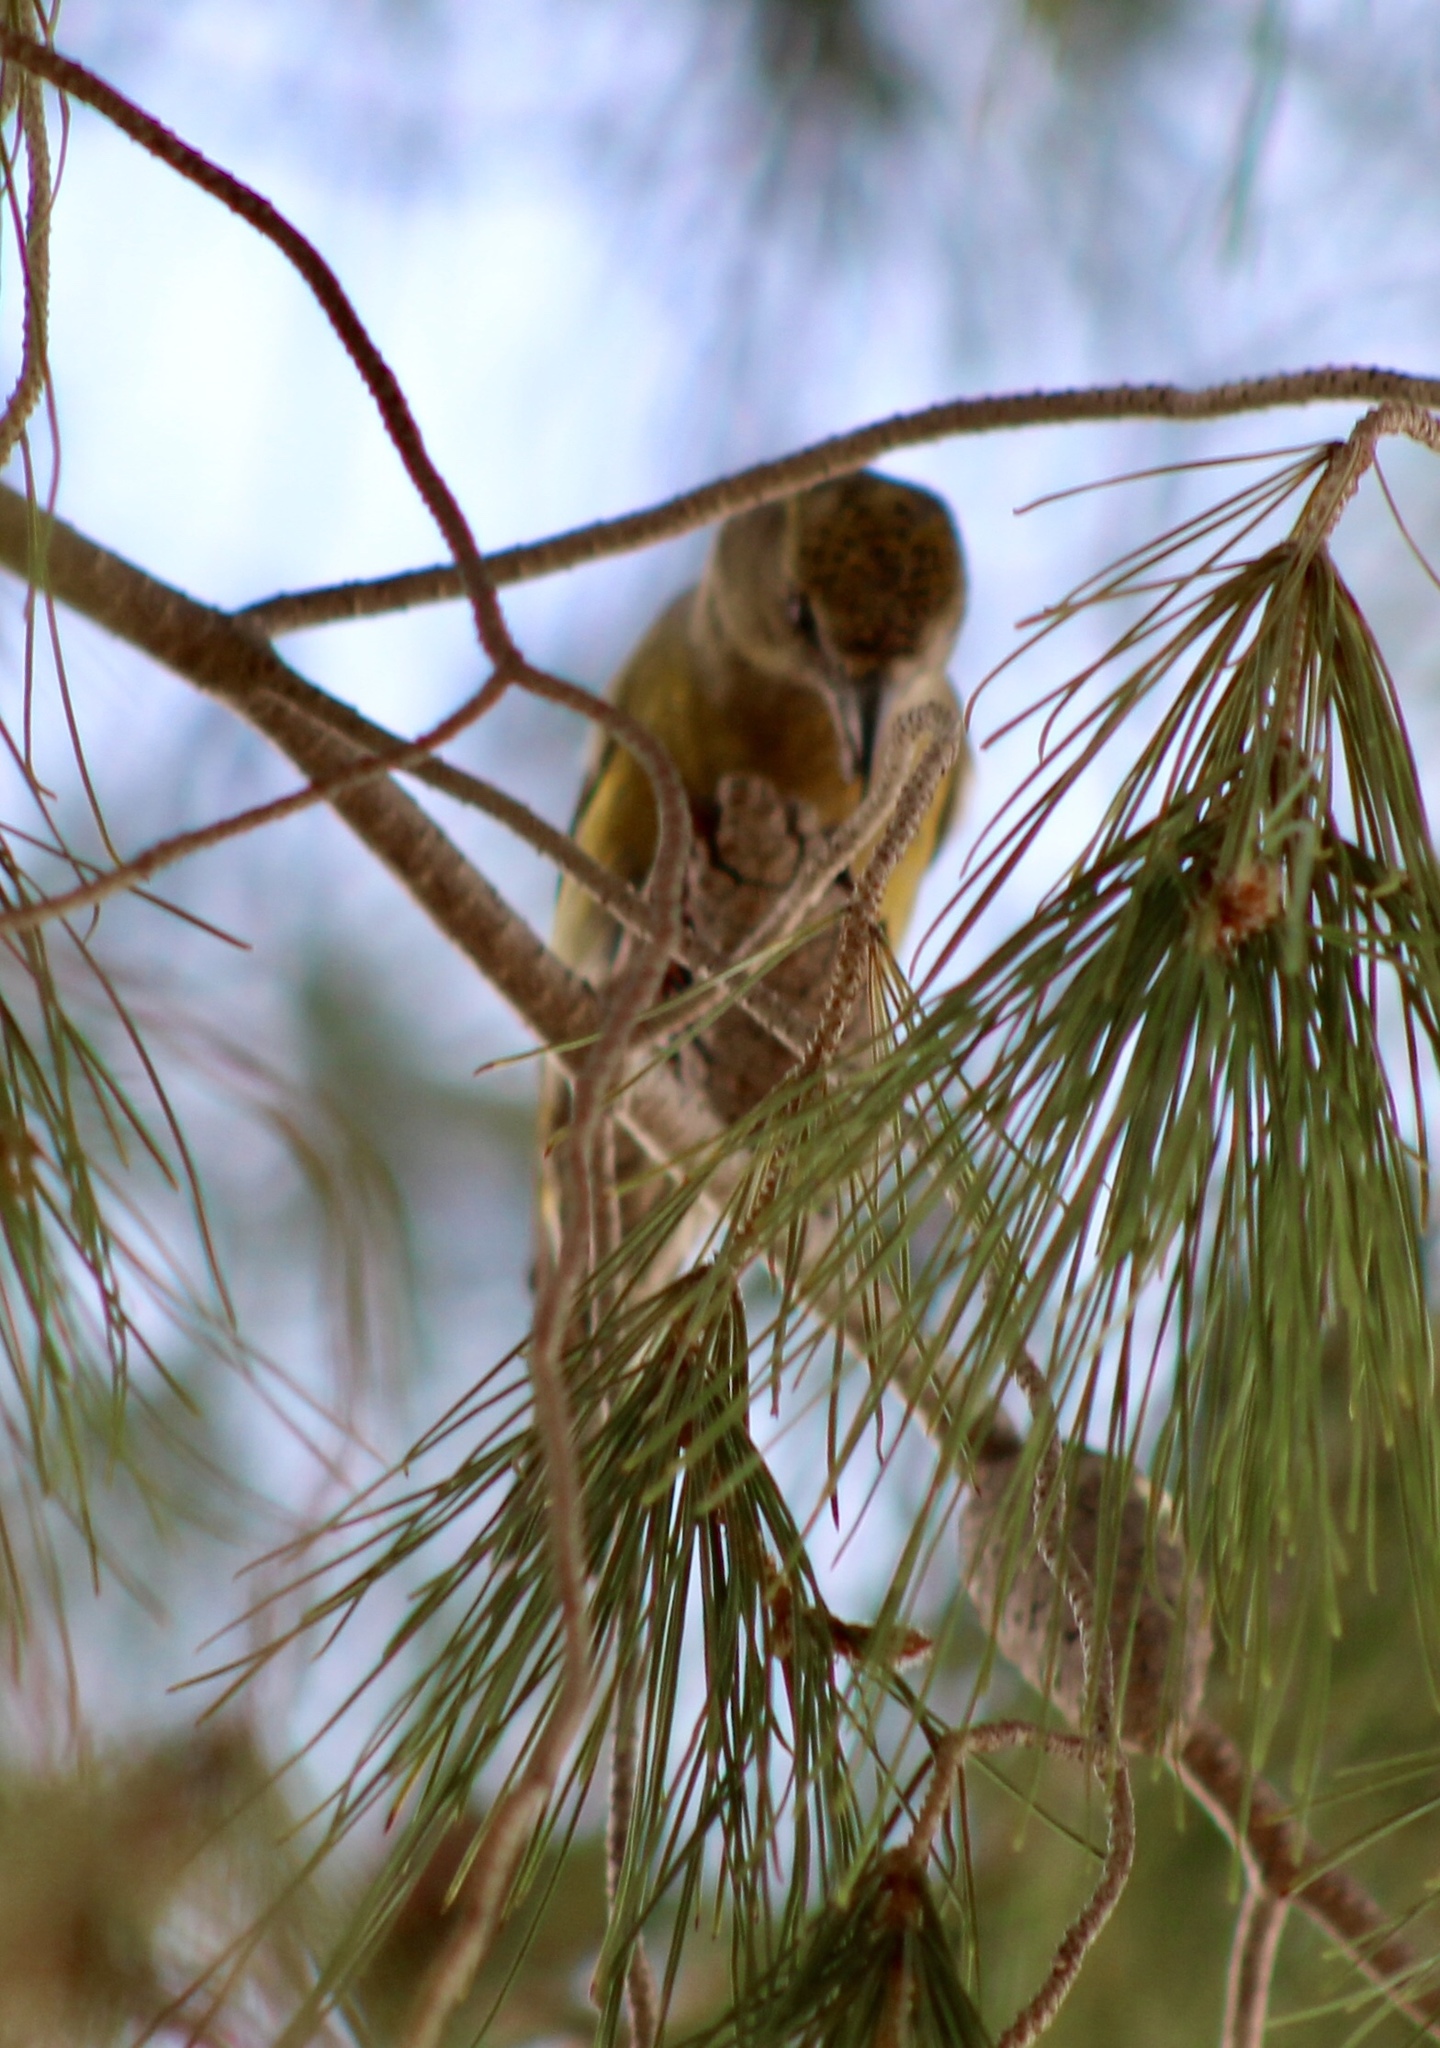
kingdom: Animalia
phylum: Chordata
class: Aves
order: Passeriformes
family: Fringillidae
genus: Loxia
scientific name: Loxia curvirostra
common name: Red crossbill
